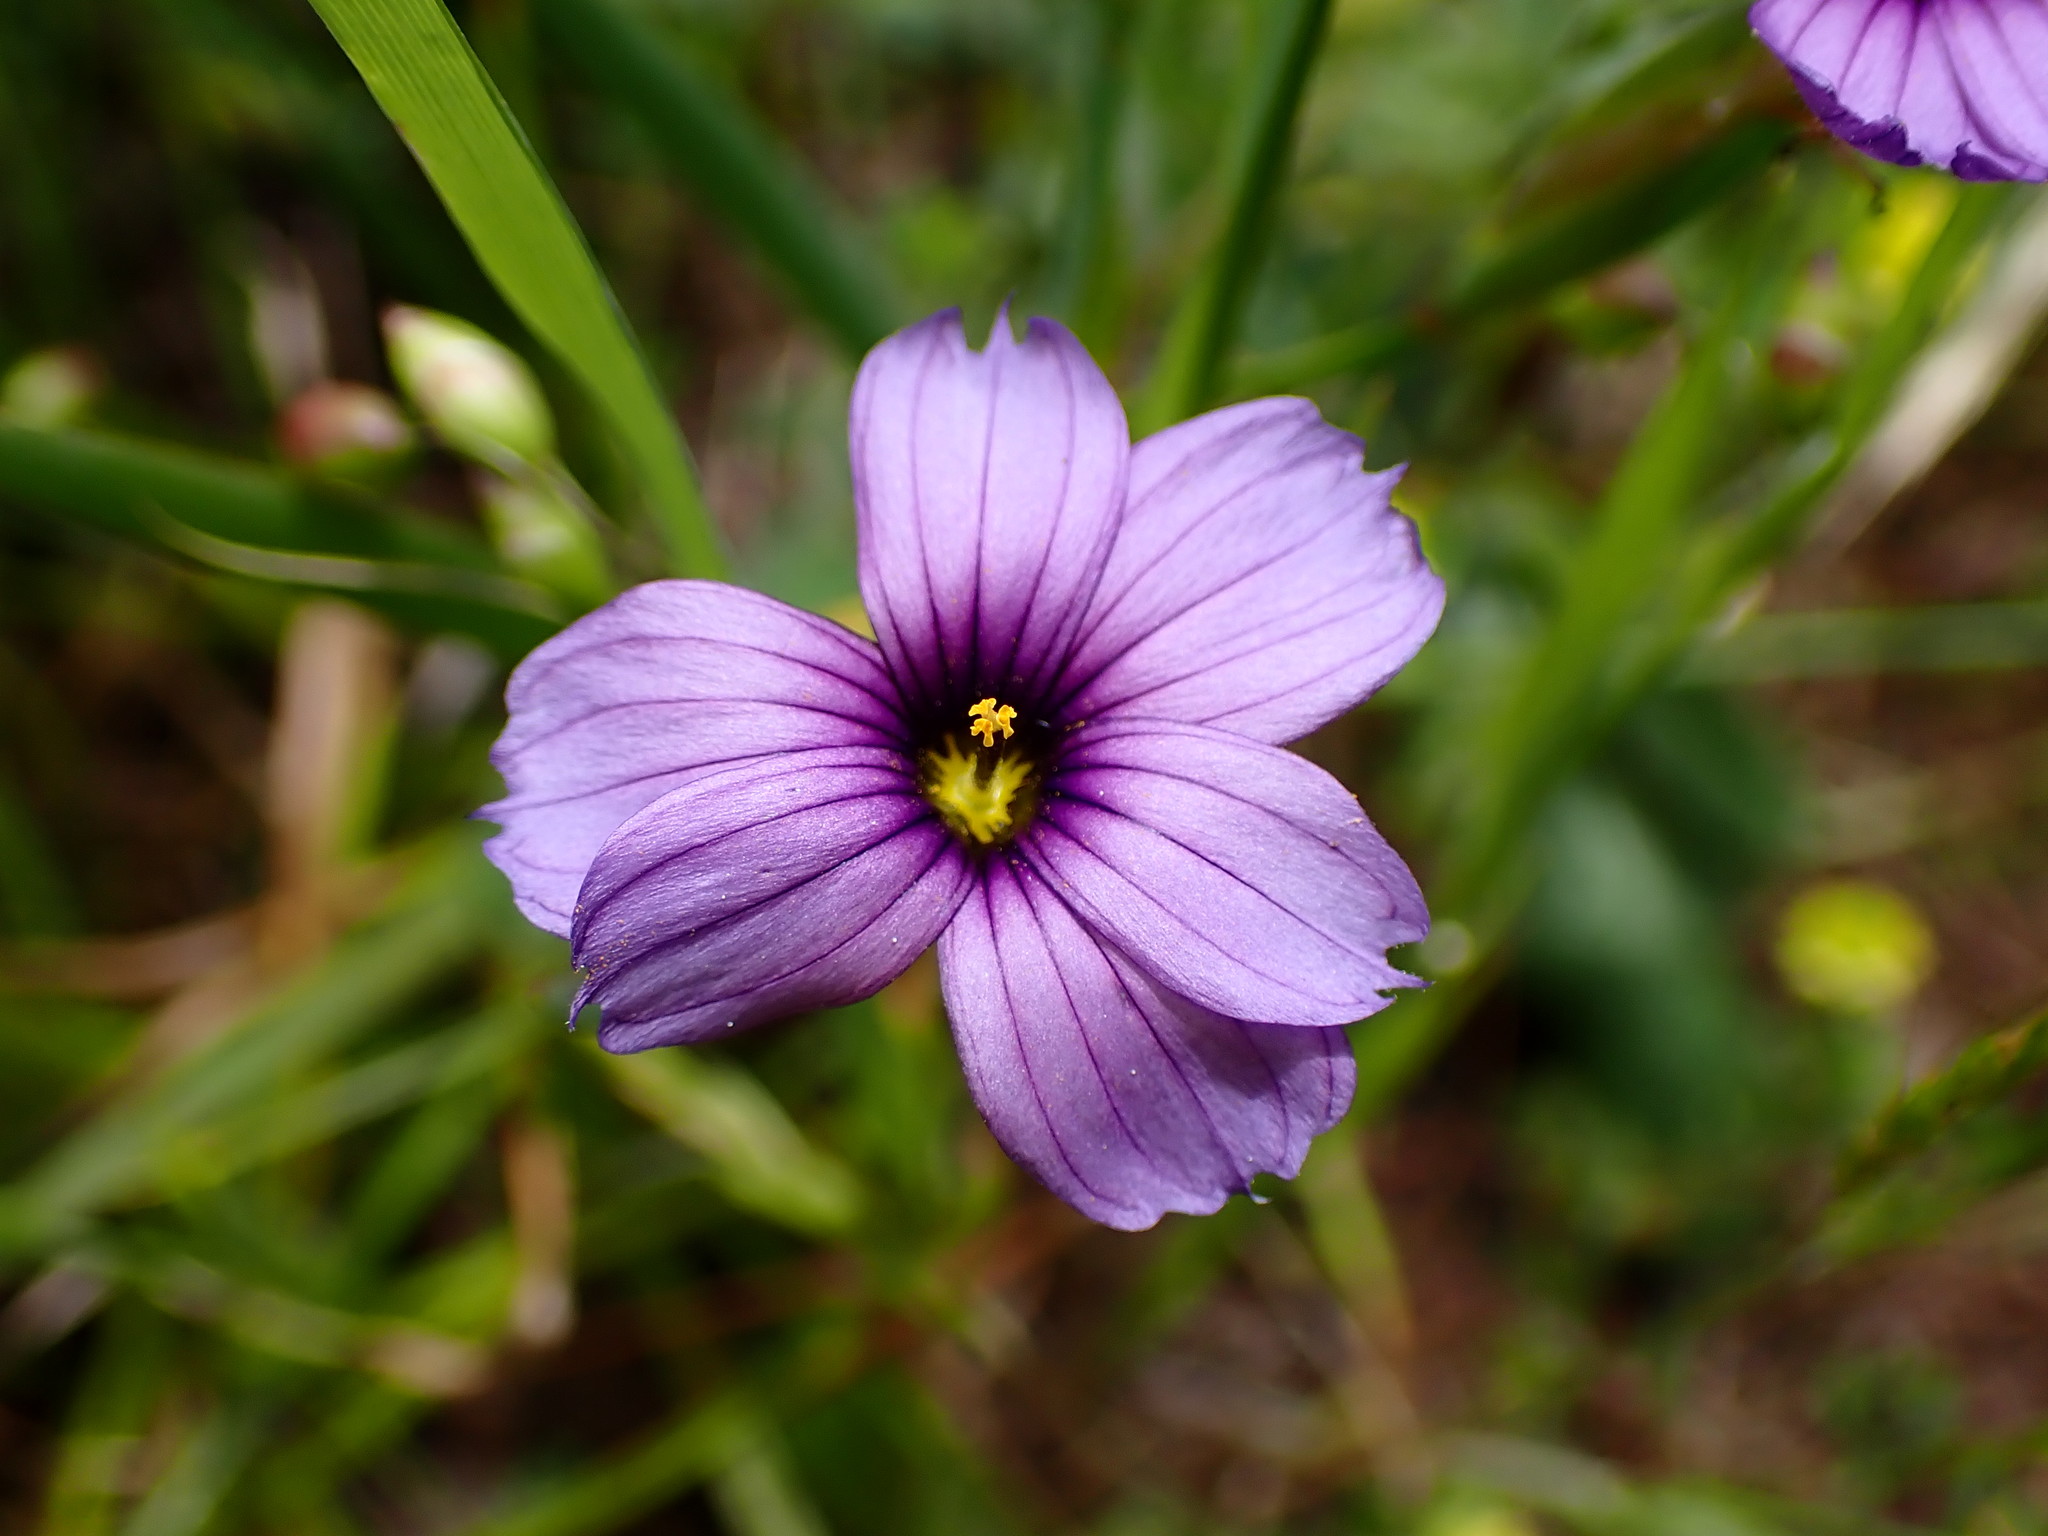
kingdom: Plantae
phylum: Tracheophyta
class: Liliopsida
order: Asparagales
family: Iridaceae
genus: Sisyrinchium
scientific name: Sisyrinchium bellum
